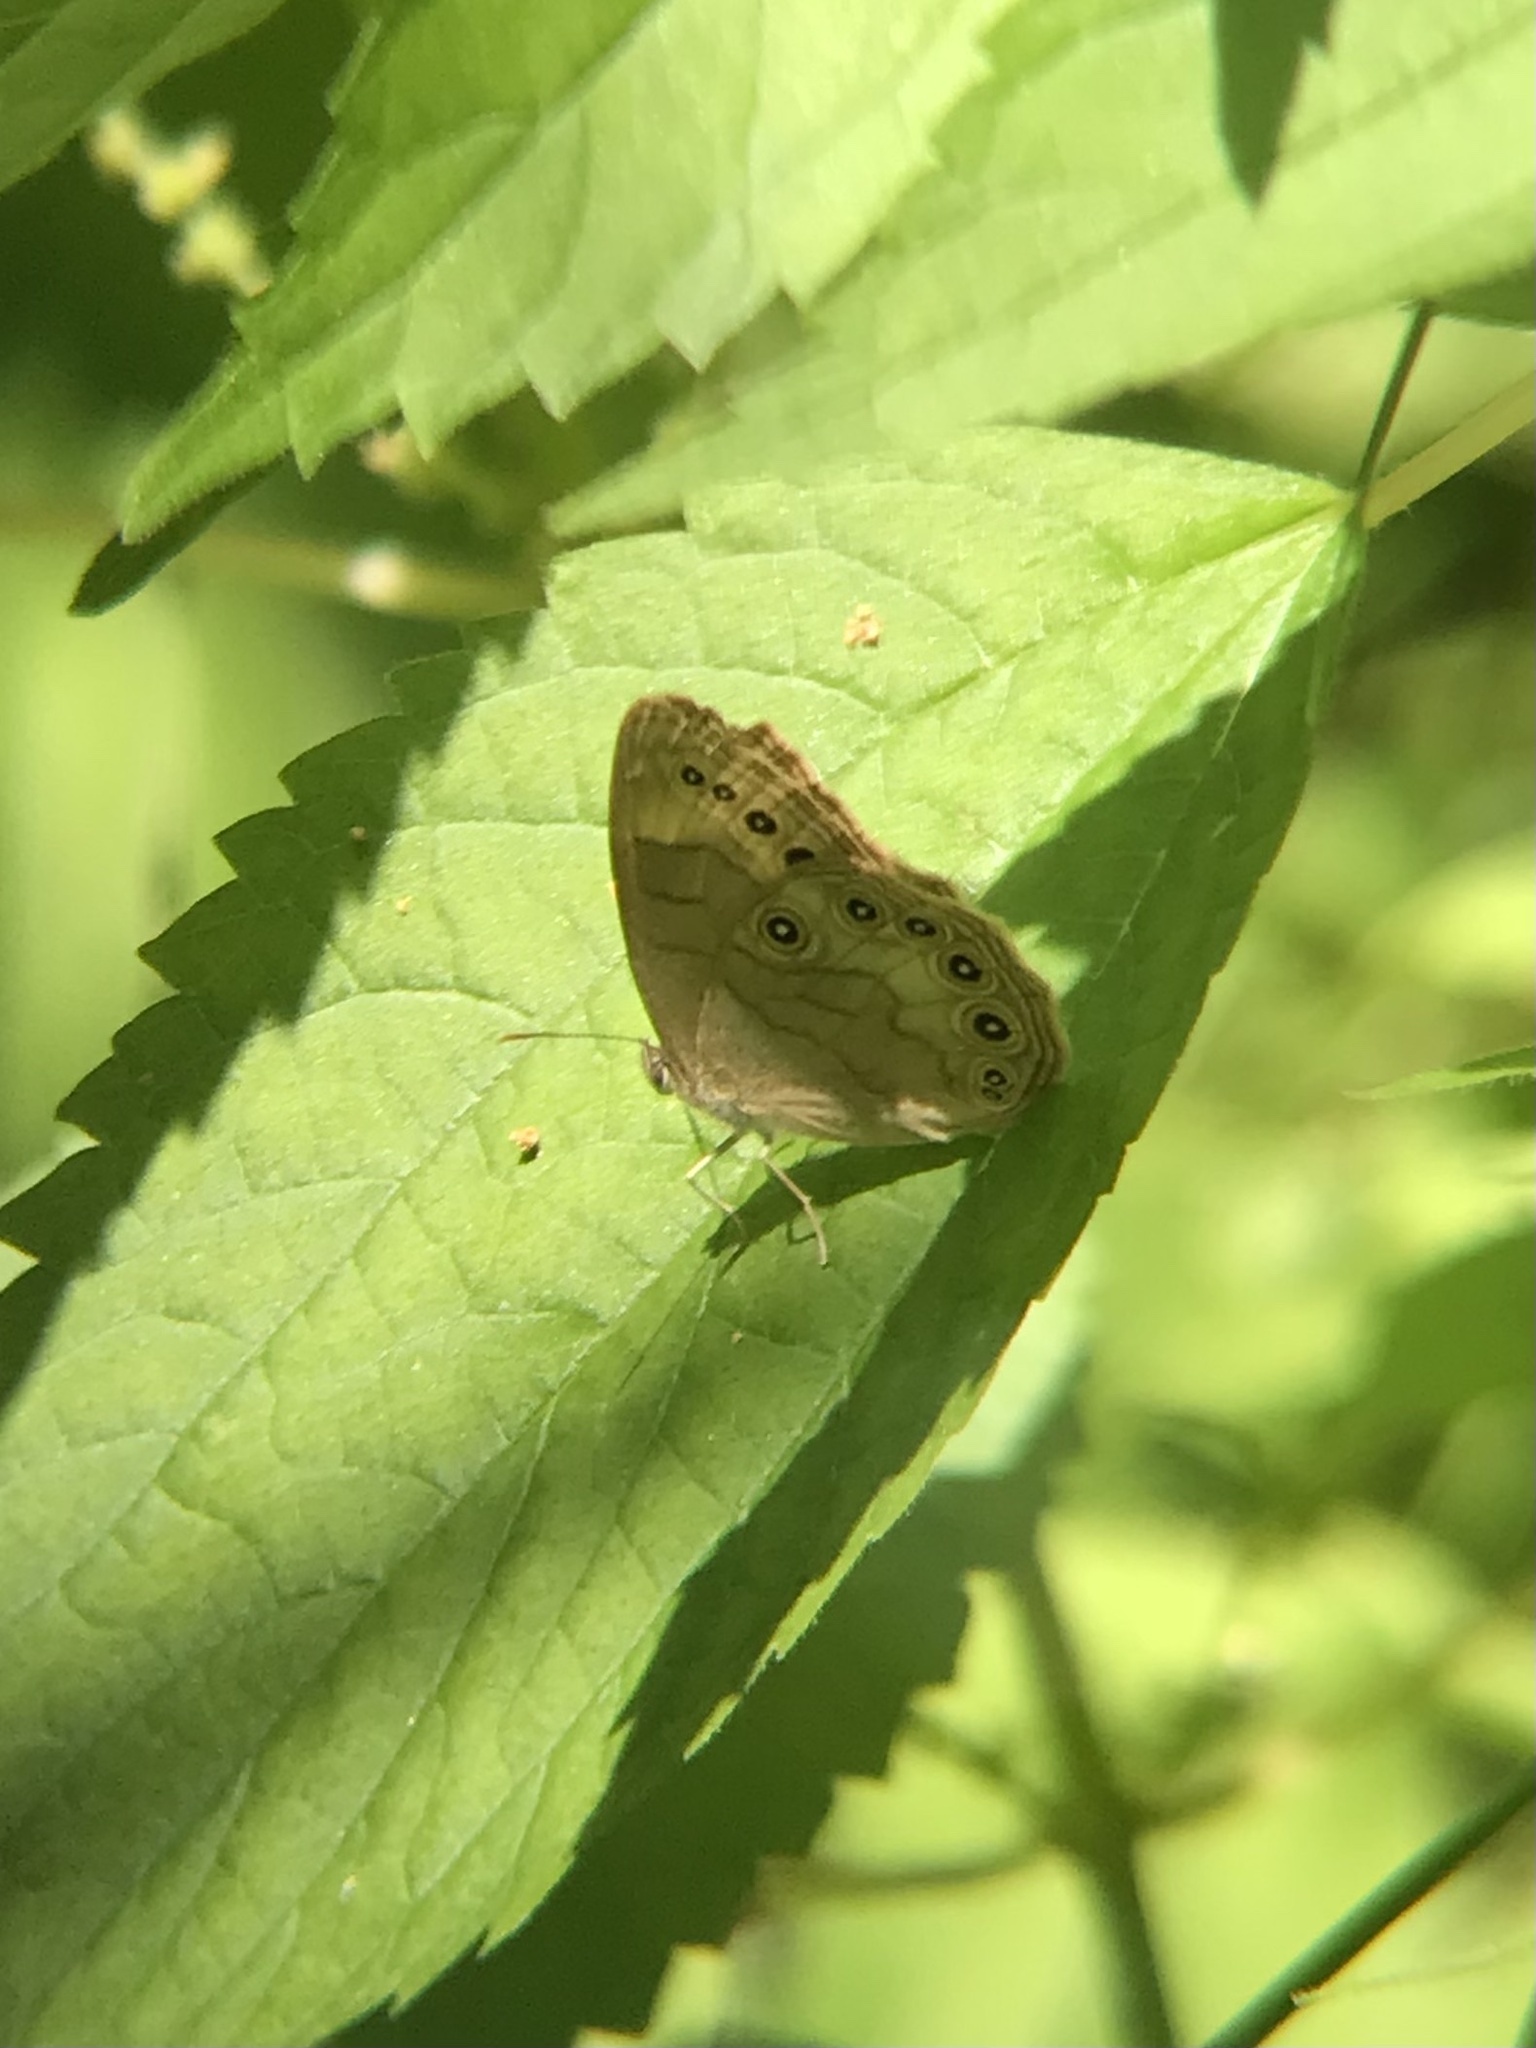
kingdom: Animalia
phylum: Arthropoda
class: Insecta
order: Lepidoptera
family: Nymphalidae
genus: Lethe
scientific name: Lethe eurydice
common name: Eyed brown
